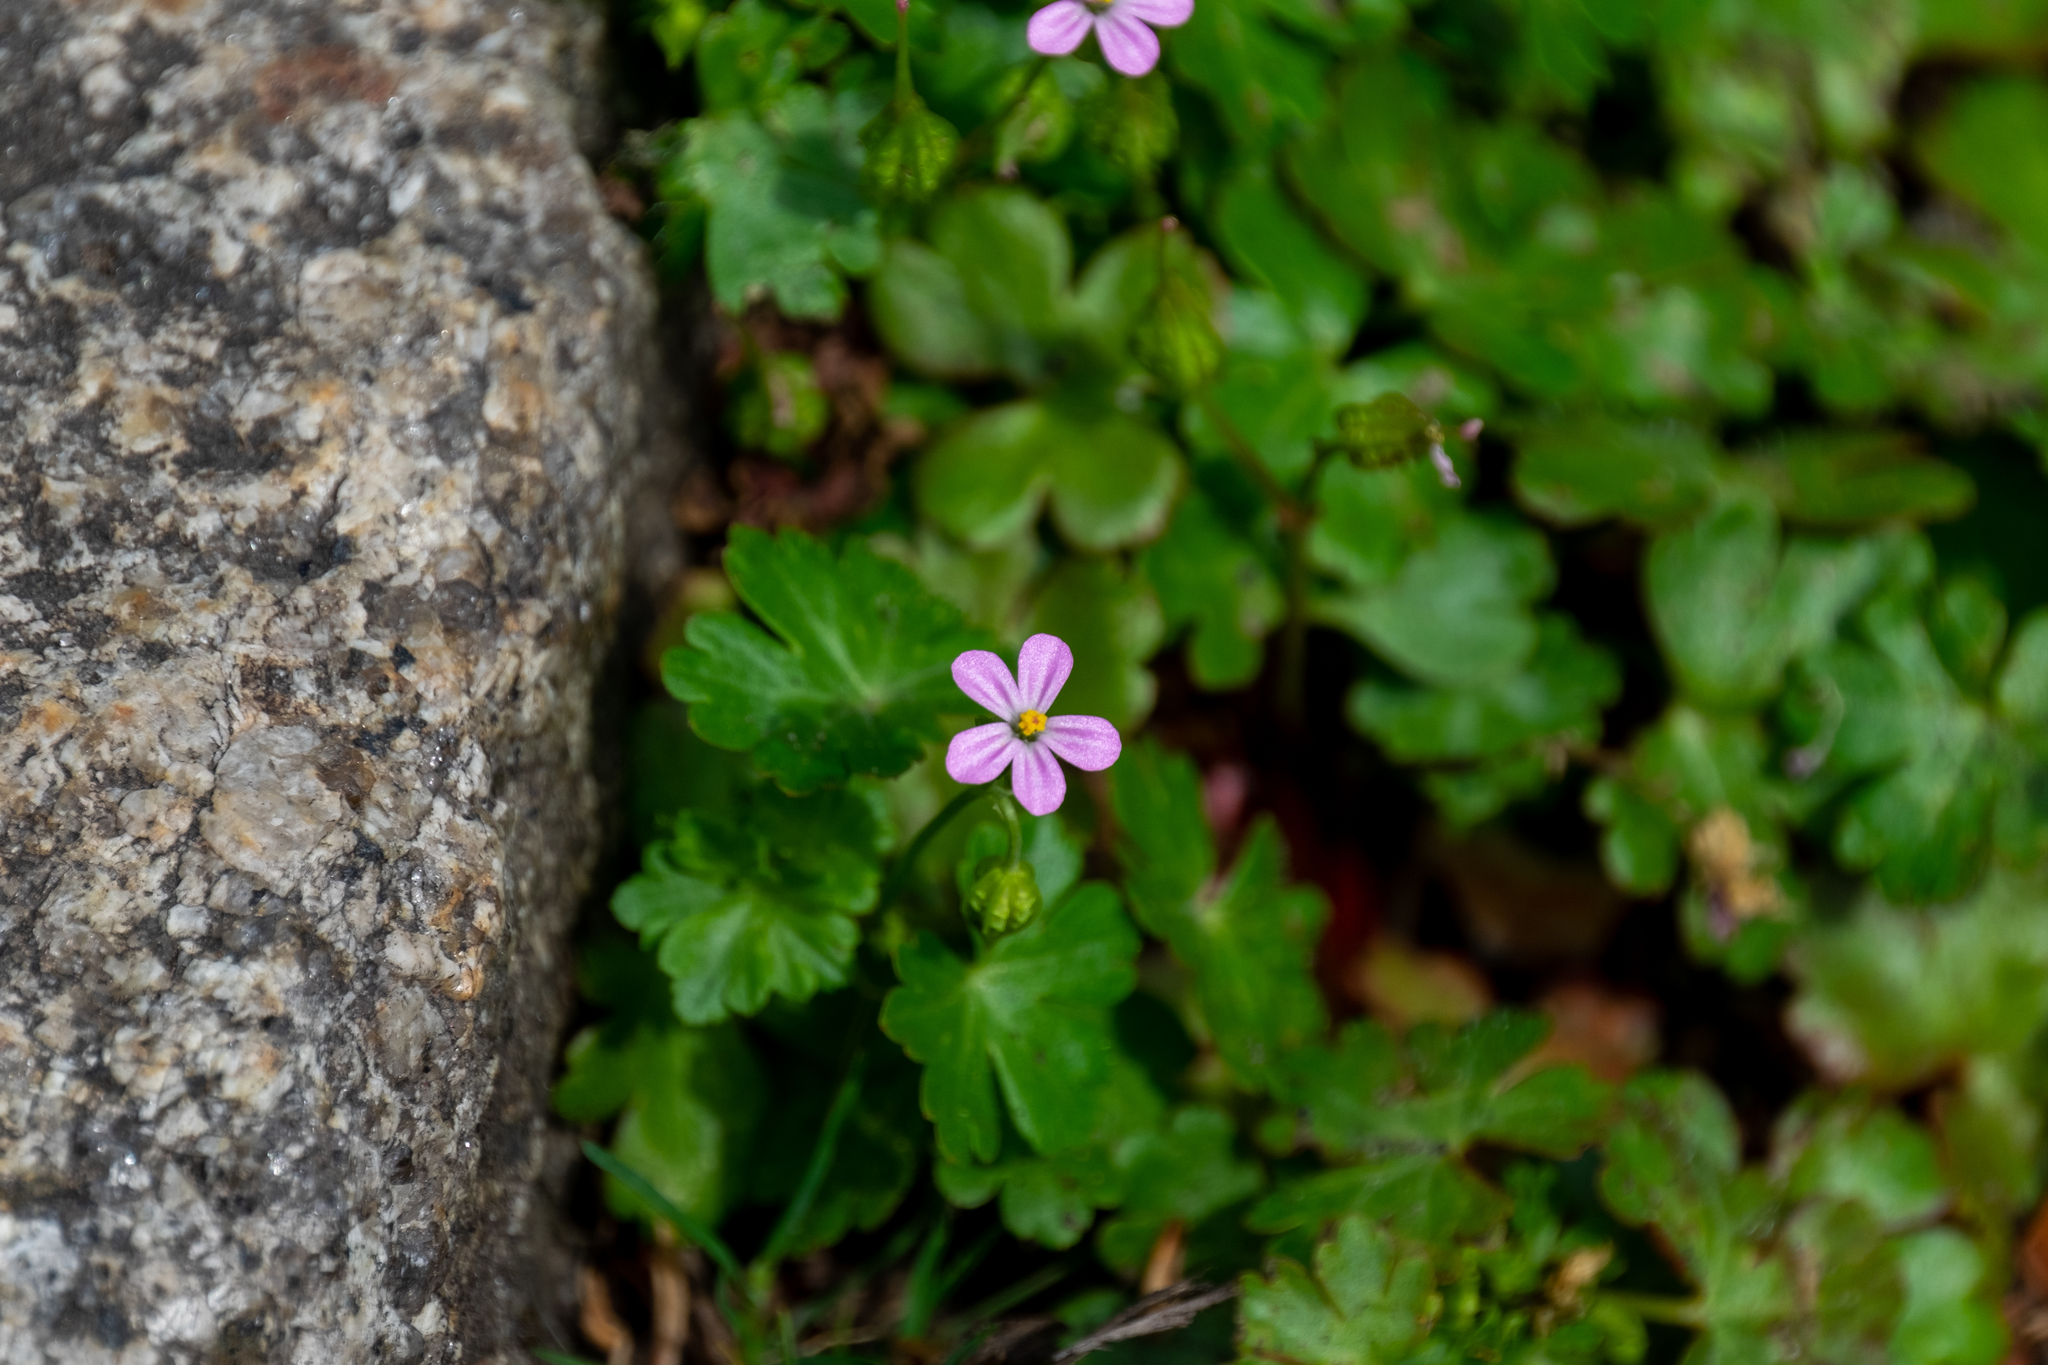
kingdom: Plantae
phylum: Tracheophyta
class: Magnoliopsida
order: Geraniales
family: Geraniaceae
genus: Geranium
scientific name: Geranium lucidum
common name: Shining crane's-bill
